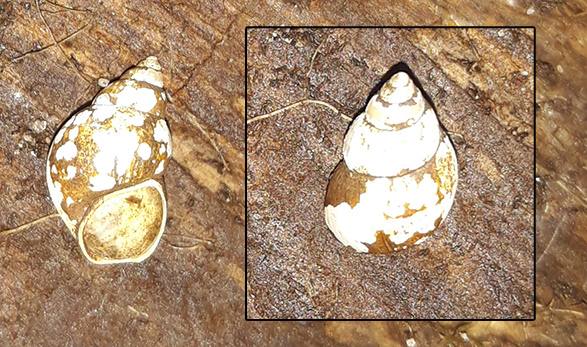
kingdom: Animalia
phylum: Mollusca
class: Gastropoda
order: Littorinimorpha
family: Bithyniidae
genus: Bithynia
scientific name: Bithynia tentaculata
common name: Common bithynia
